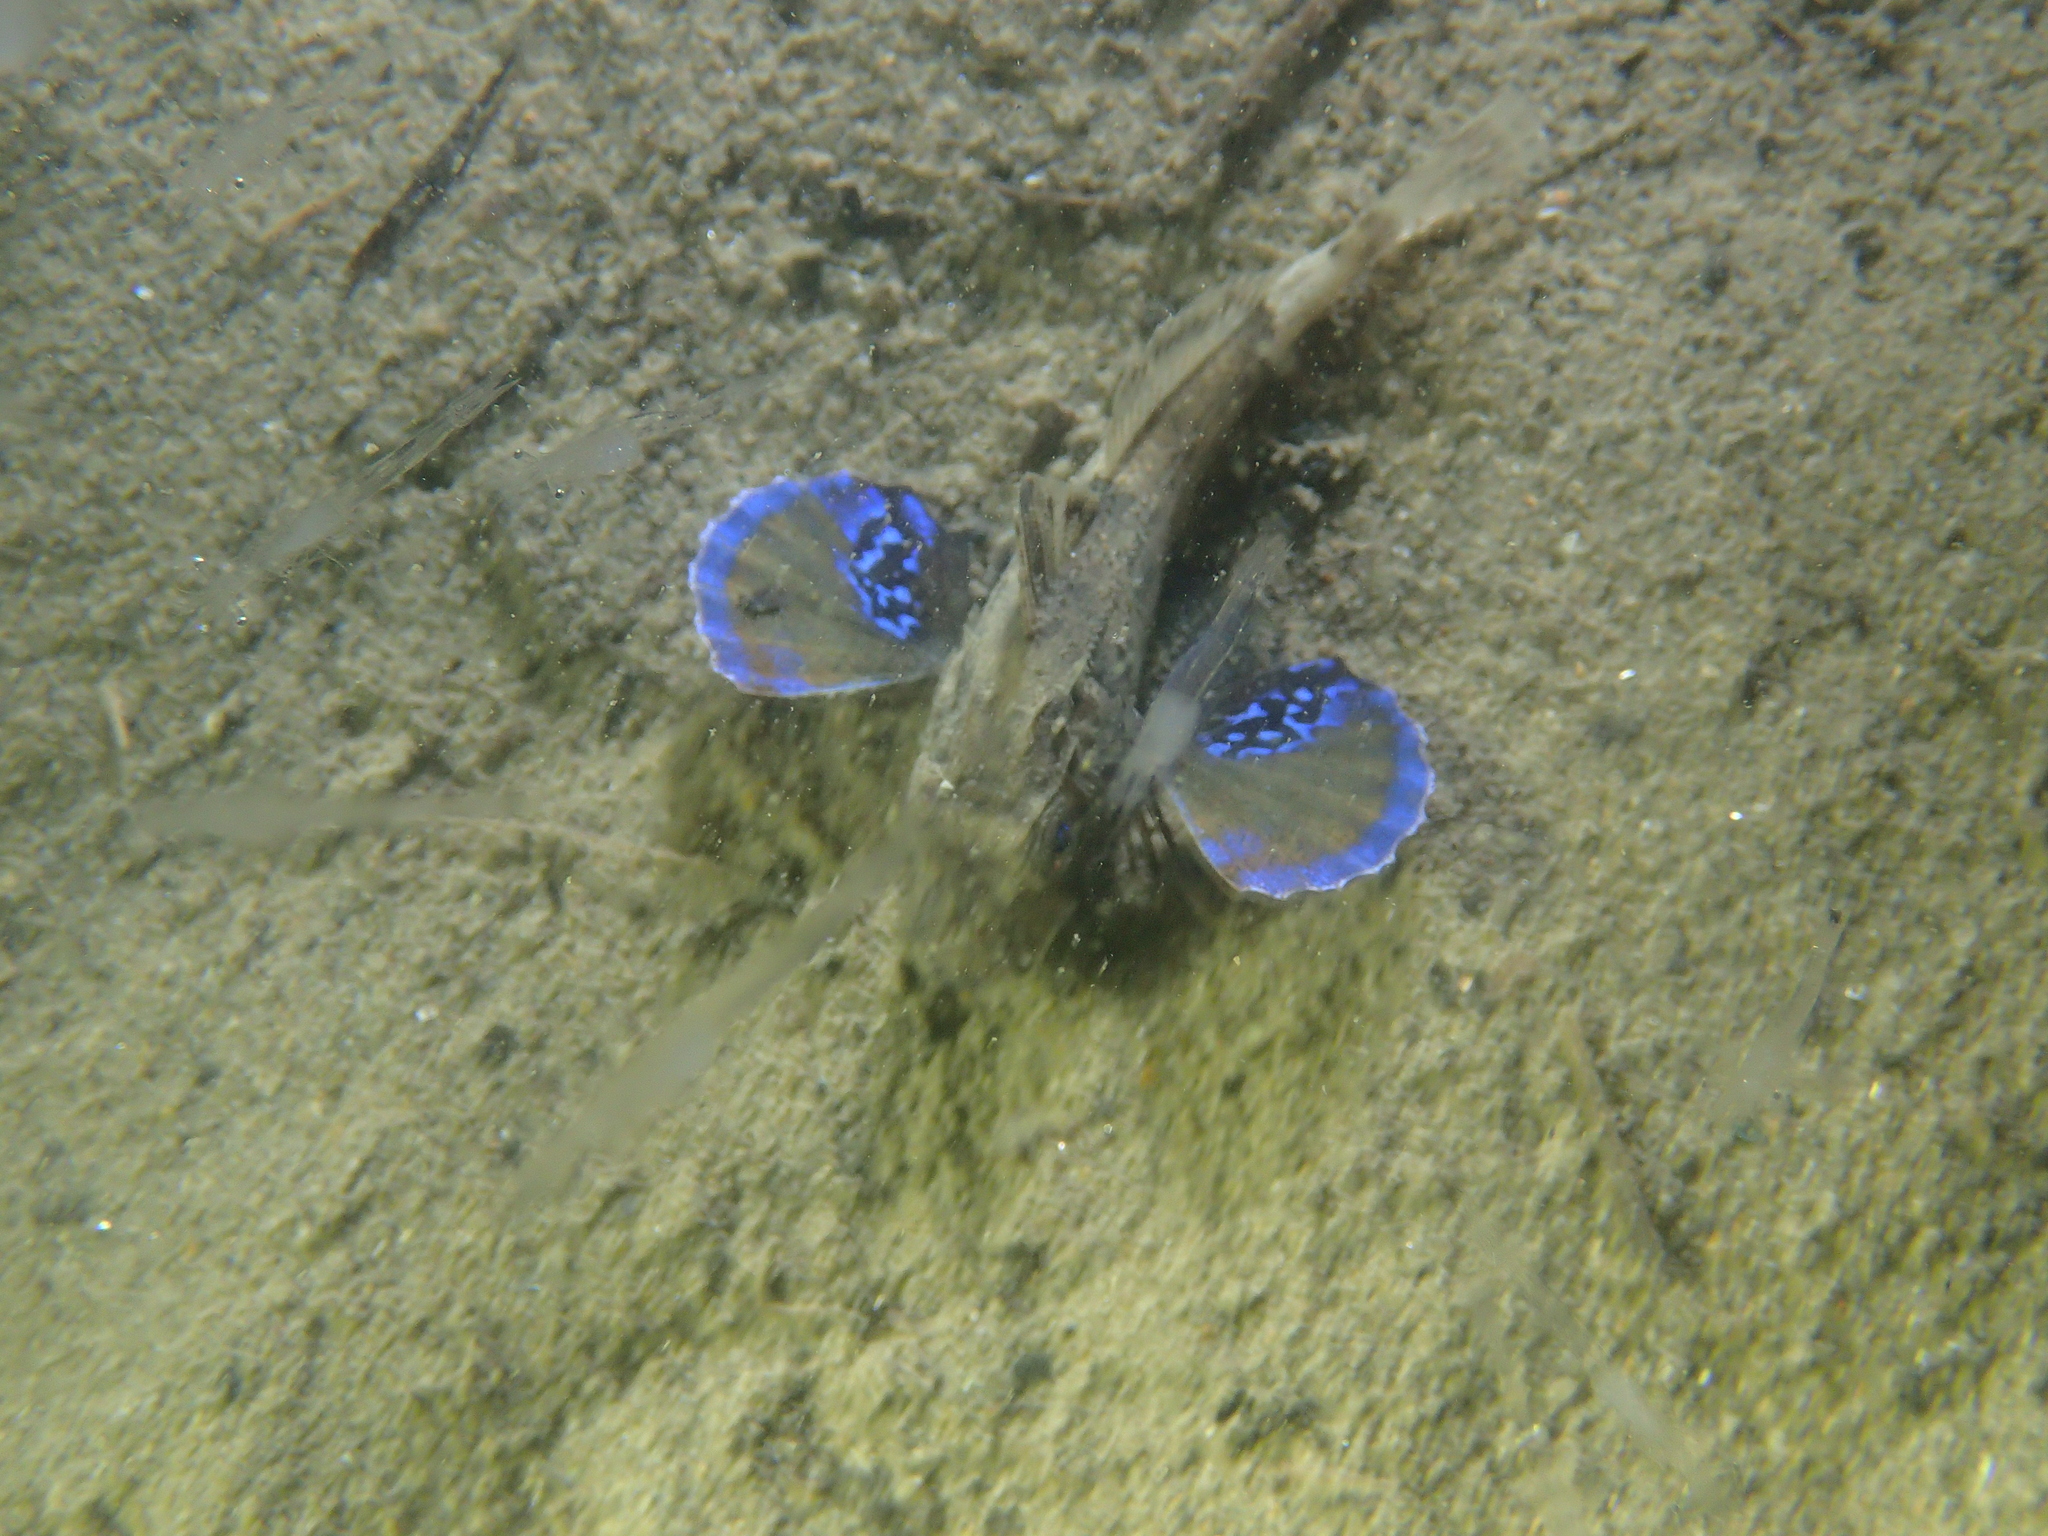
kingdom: Animalia
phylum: Chordata
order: Scorpaeniformes
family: Triglidae
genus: Chelidonichthys
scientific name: Chelidonichthys lucerna
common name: Tub gurnard
